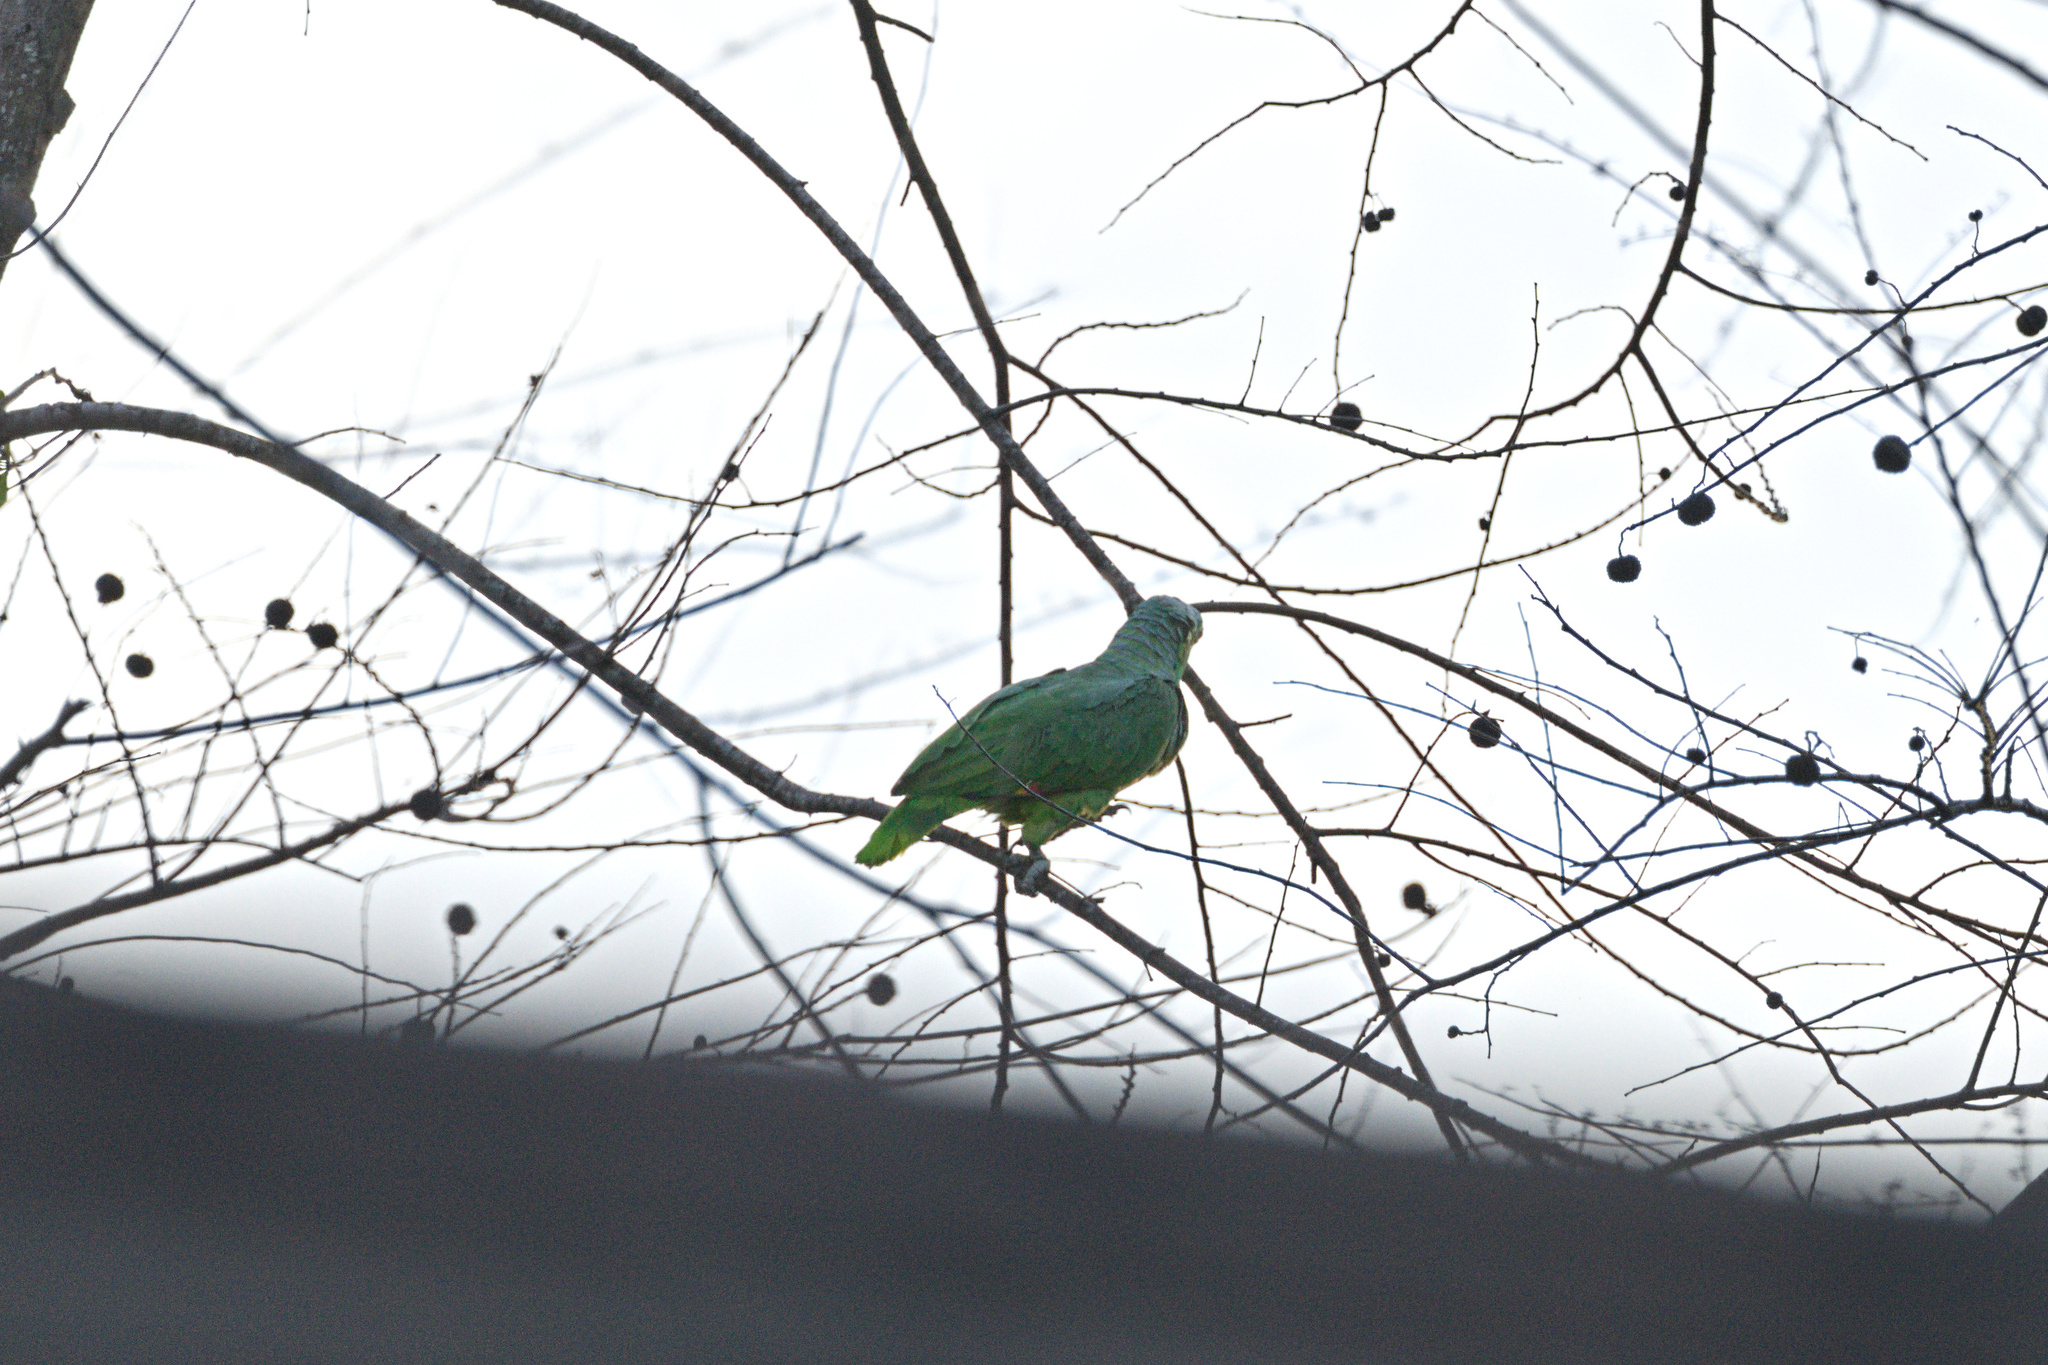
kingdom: Animalia
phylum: Chordata
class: Aves
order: Psittaciformes
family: Psittacidae
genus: Amazona
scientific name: Amazona autumnalis
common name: Red-lored amazon
